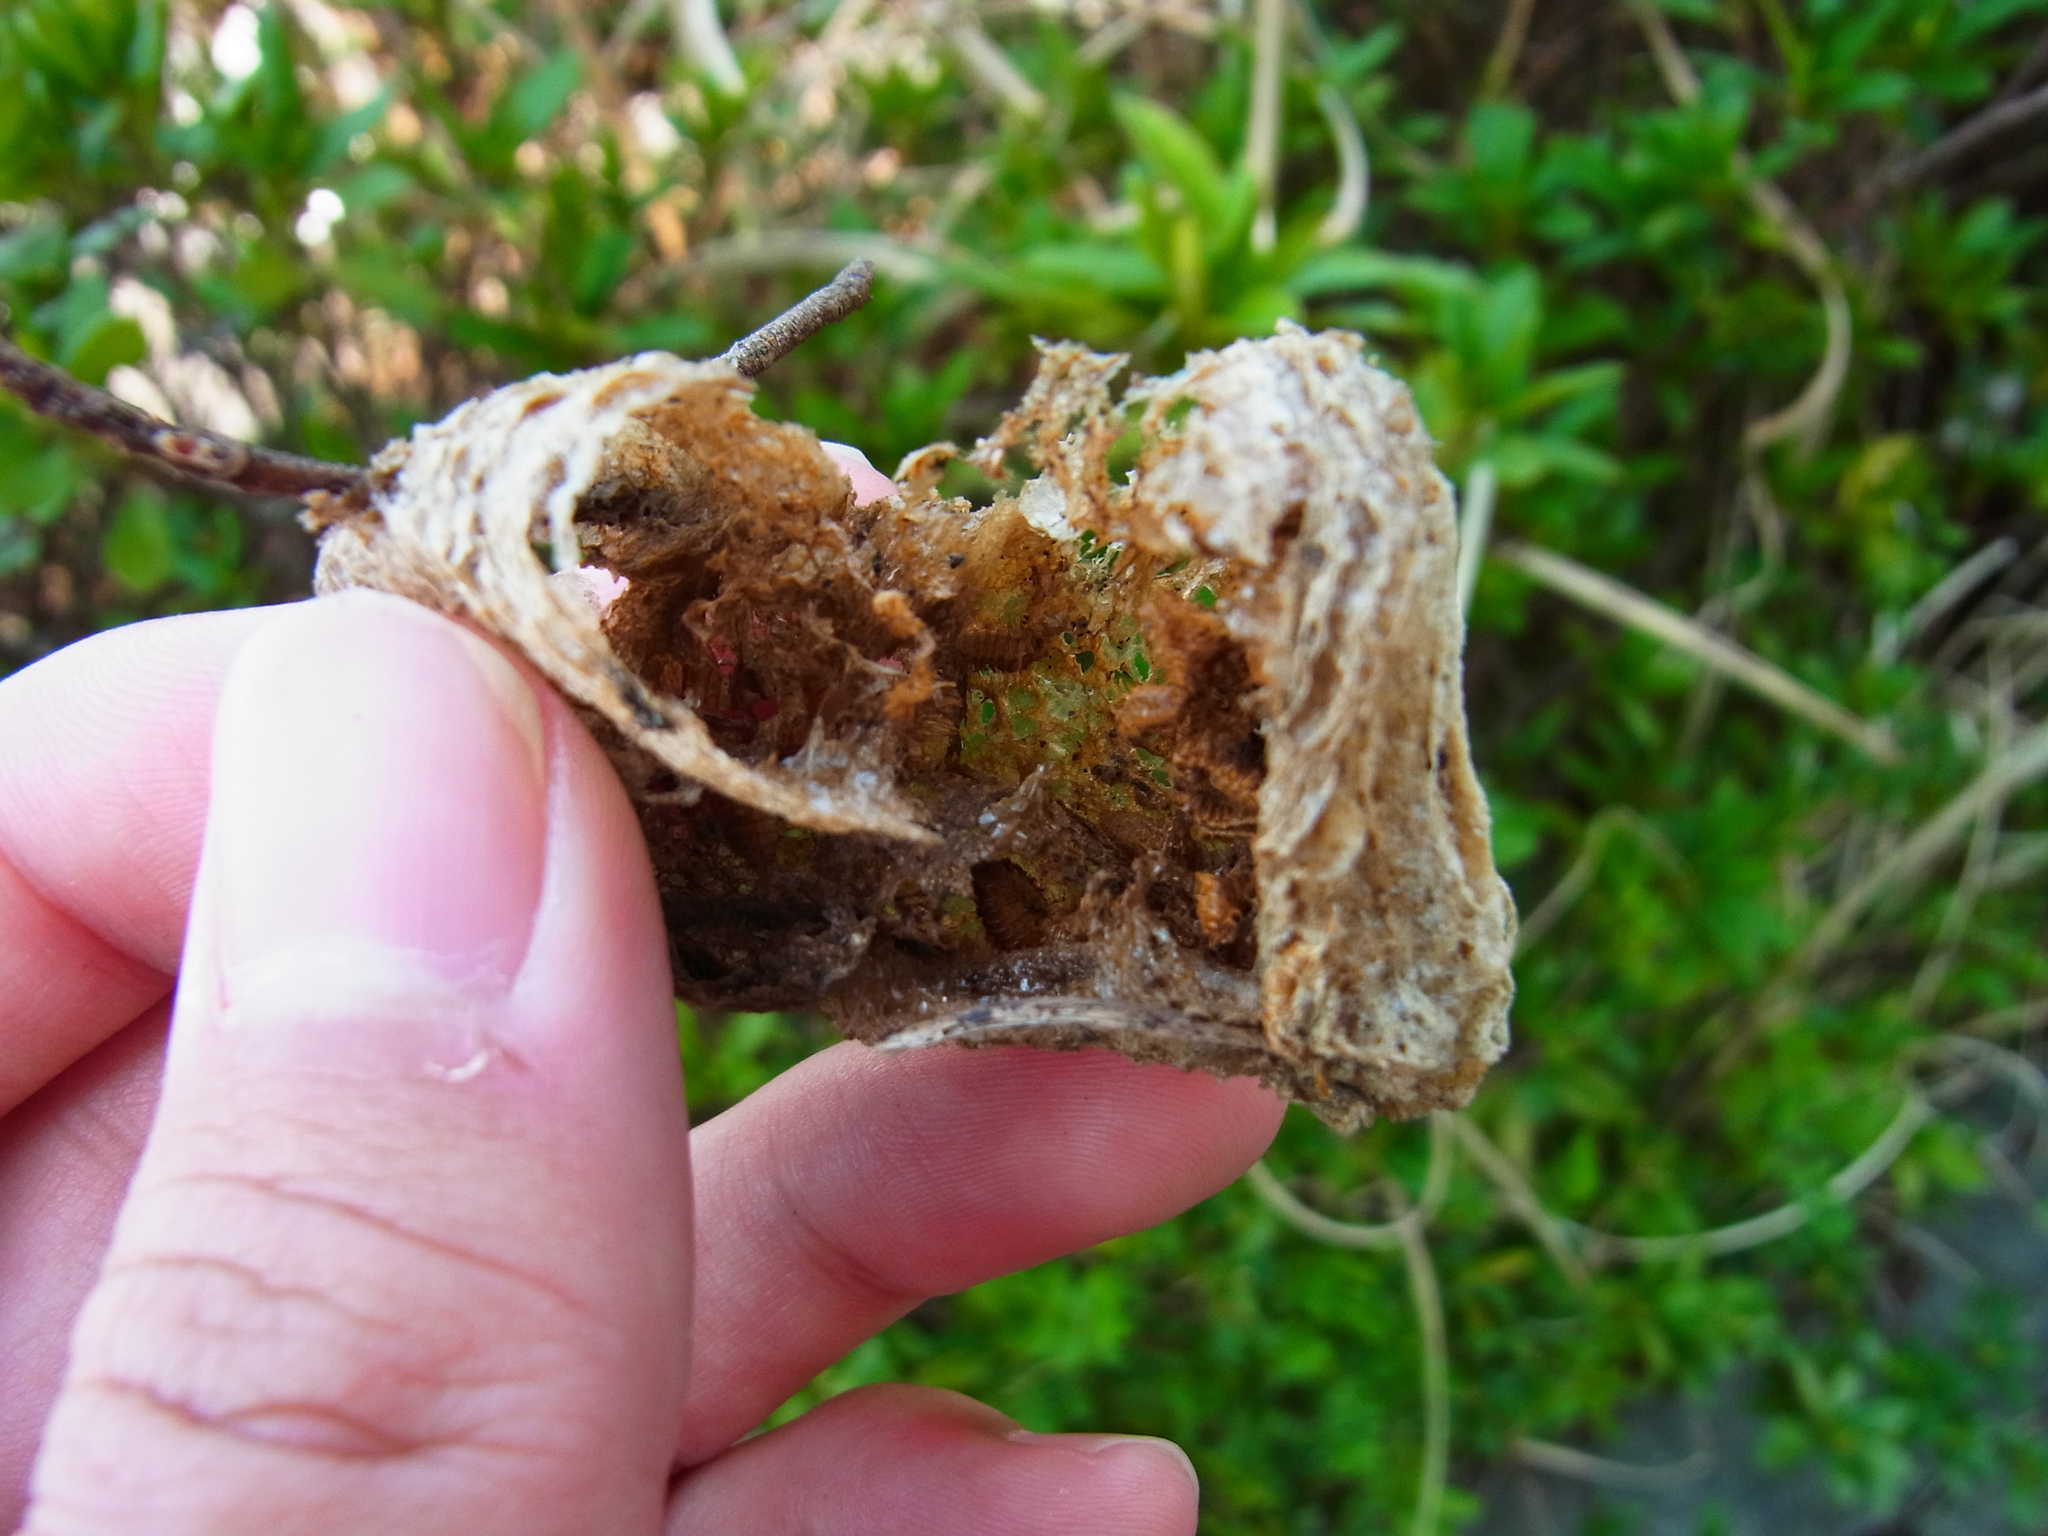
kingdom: Animalia
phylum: Arthropoda
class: Insecta
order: Coleoptera
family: Dermestidae
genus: Thaumaglossa
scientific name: Thaumaglossa rufocapillata
